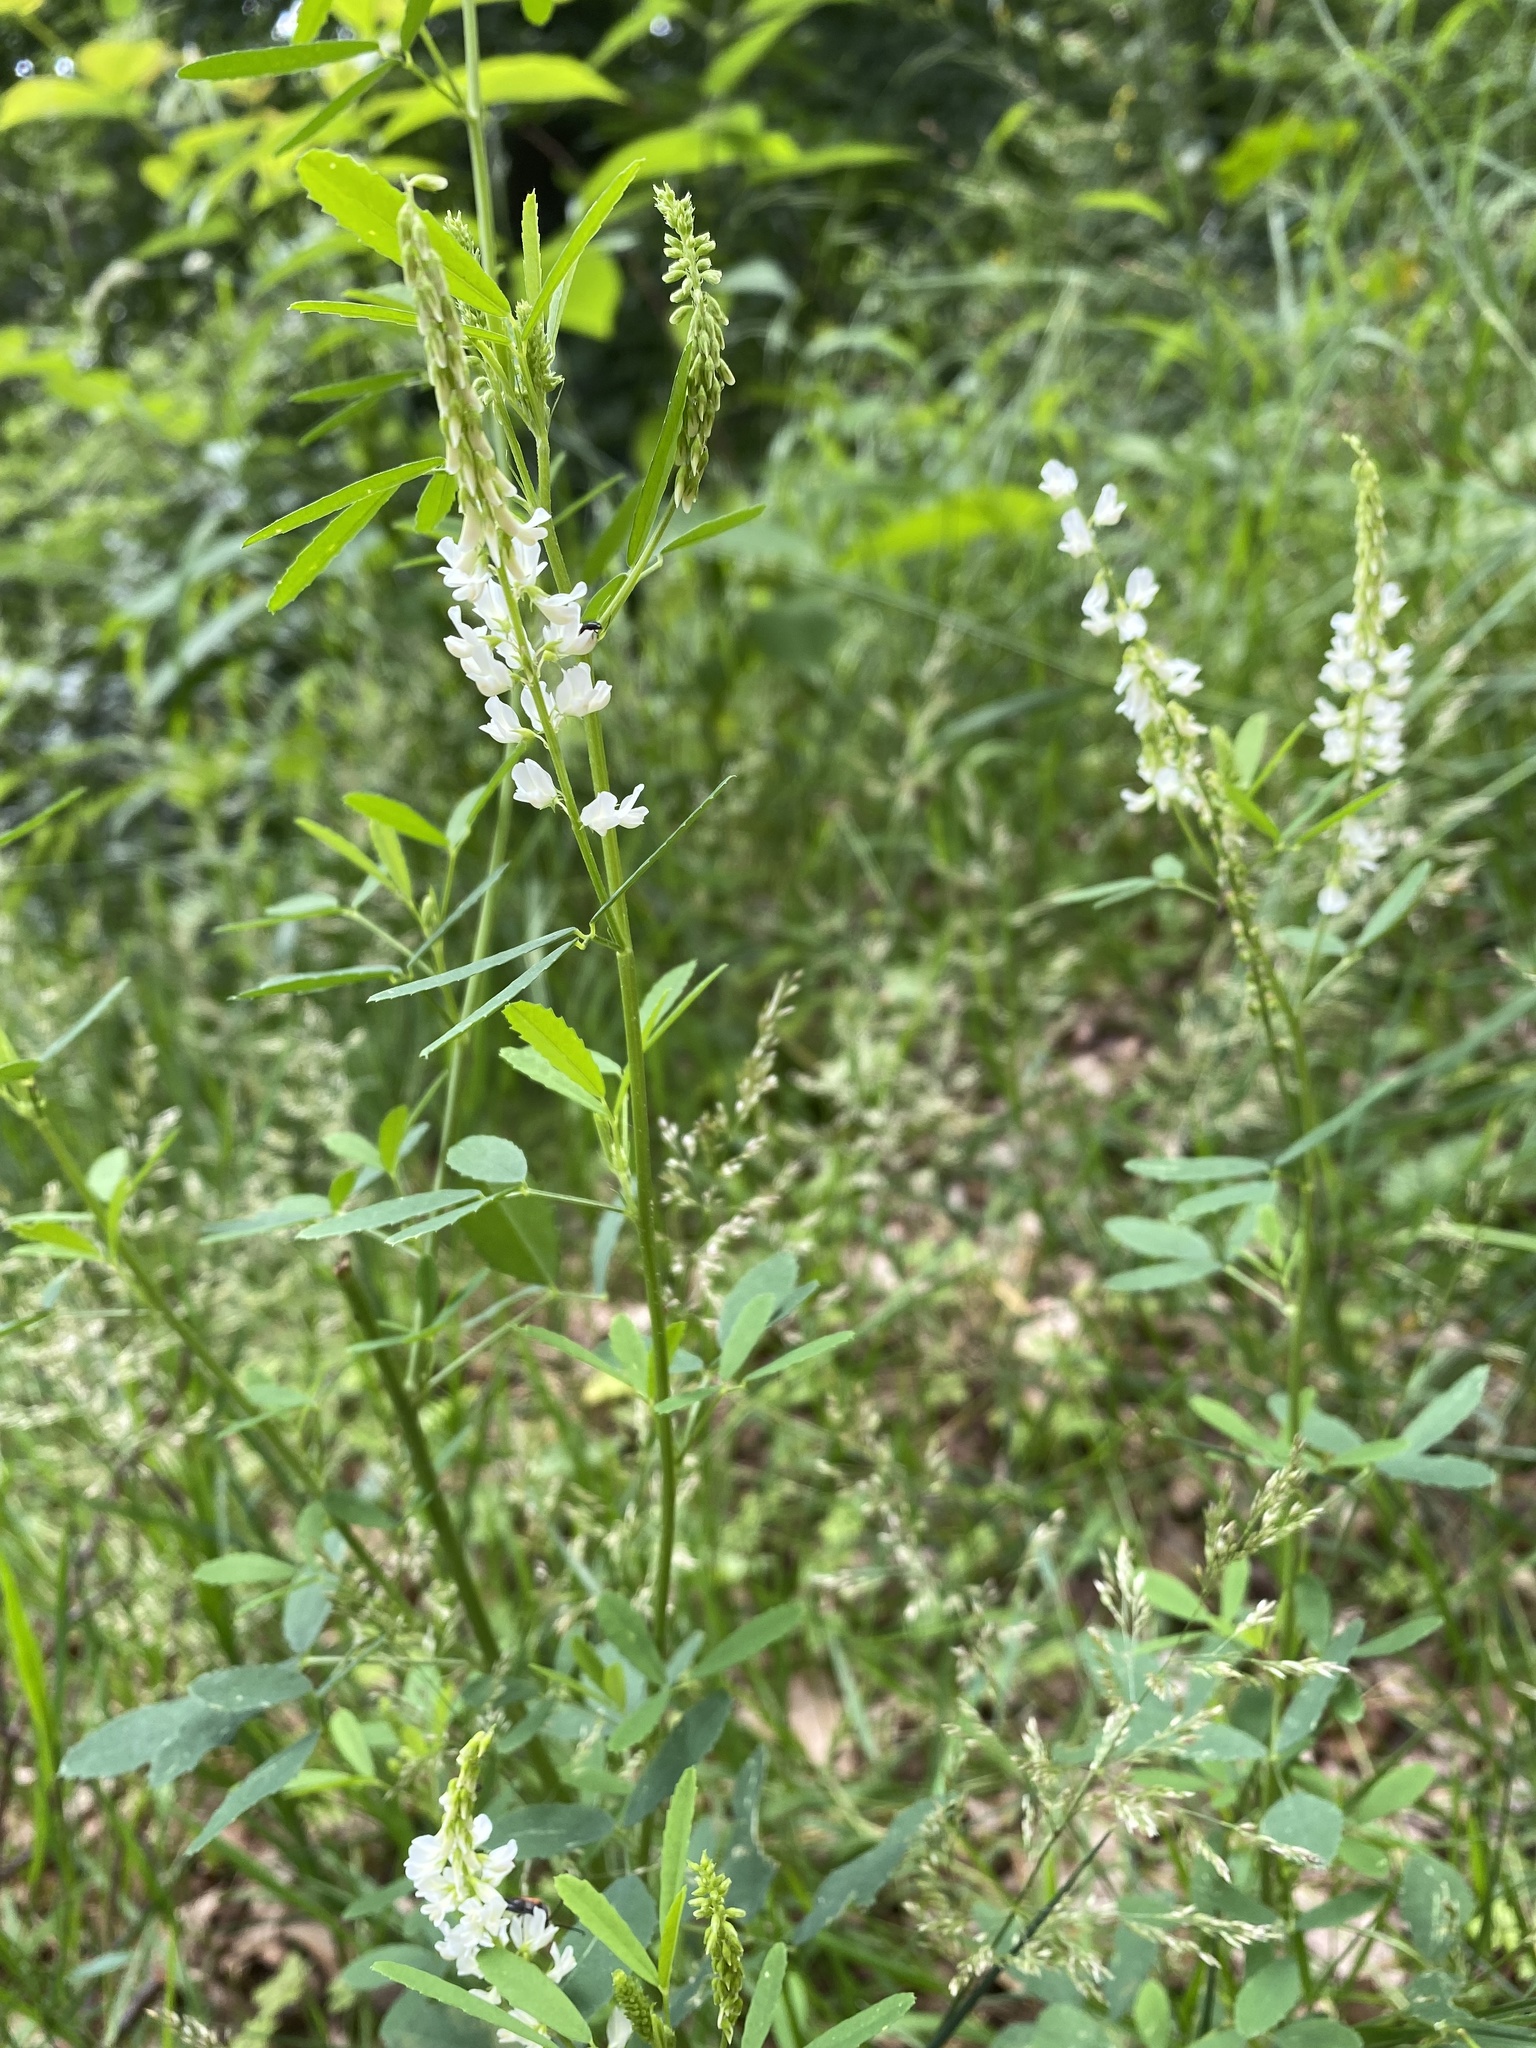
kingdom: Plantae
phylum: Tracheophyta
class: Magnoliopsida
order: Fabales
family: Fabaceae
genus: Melilotus
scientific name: Melilotus albus
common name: White melilot
